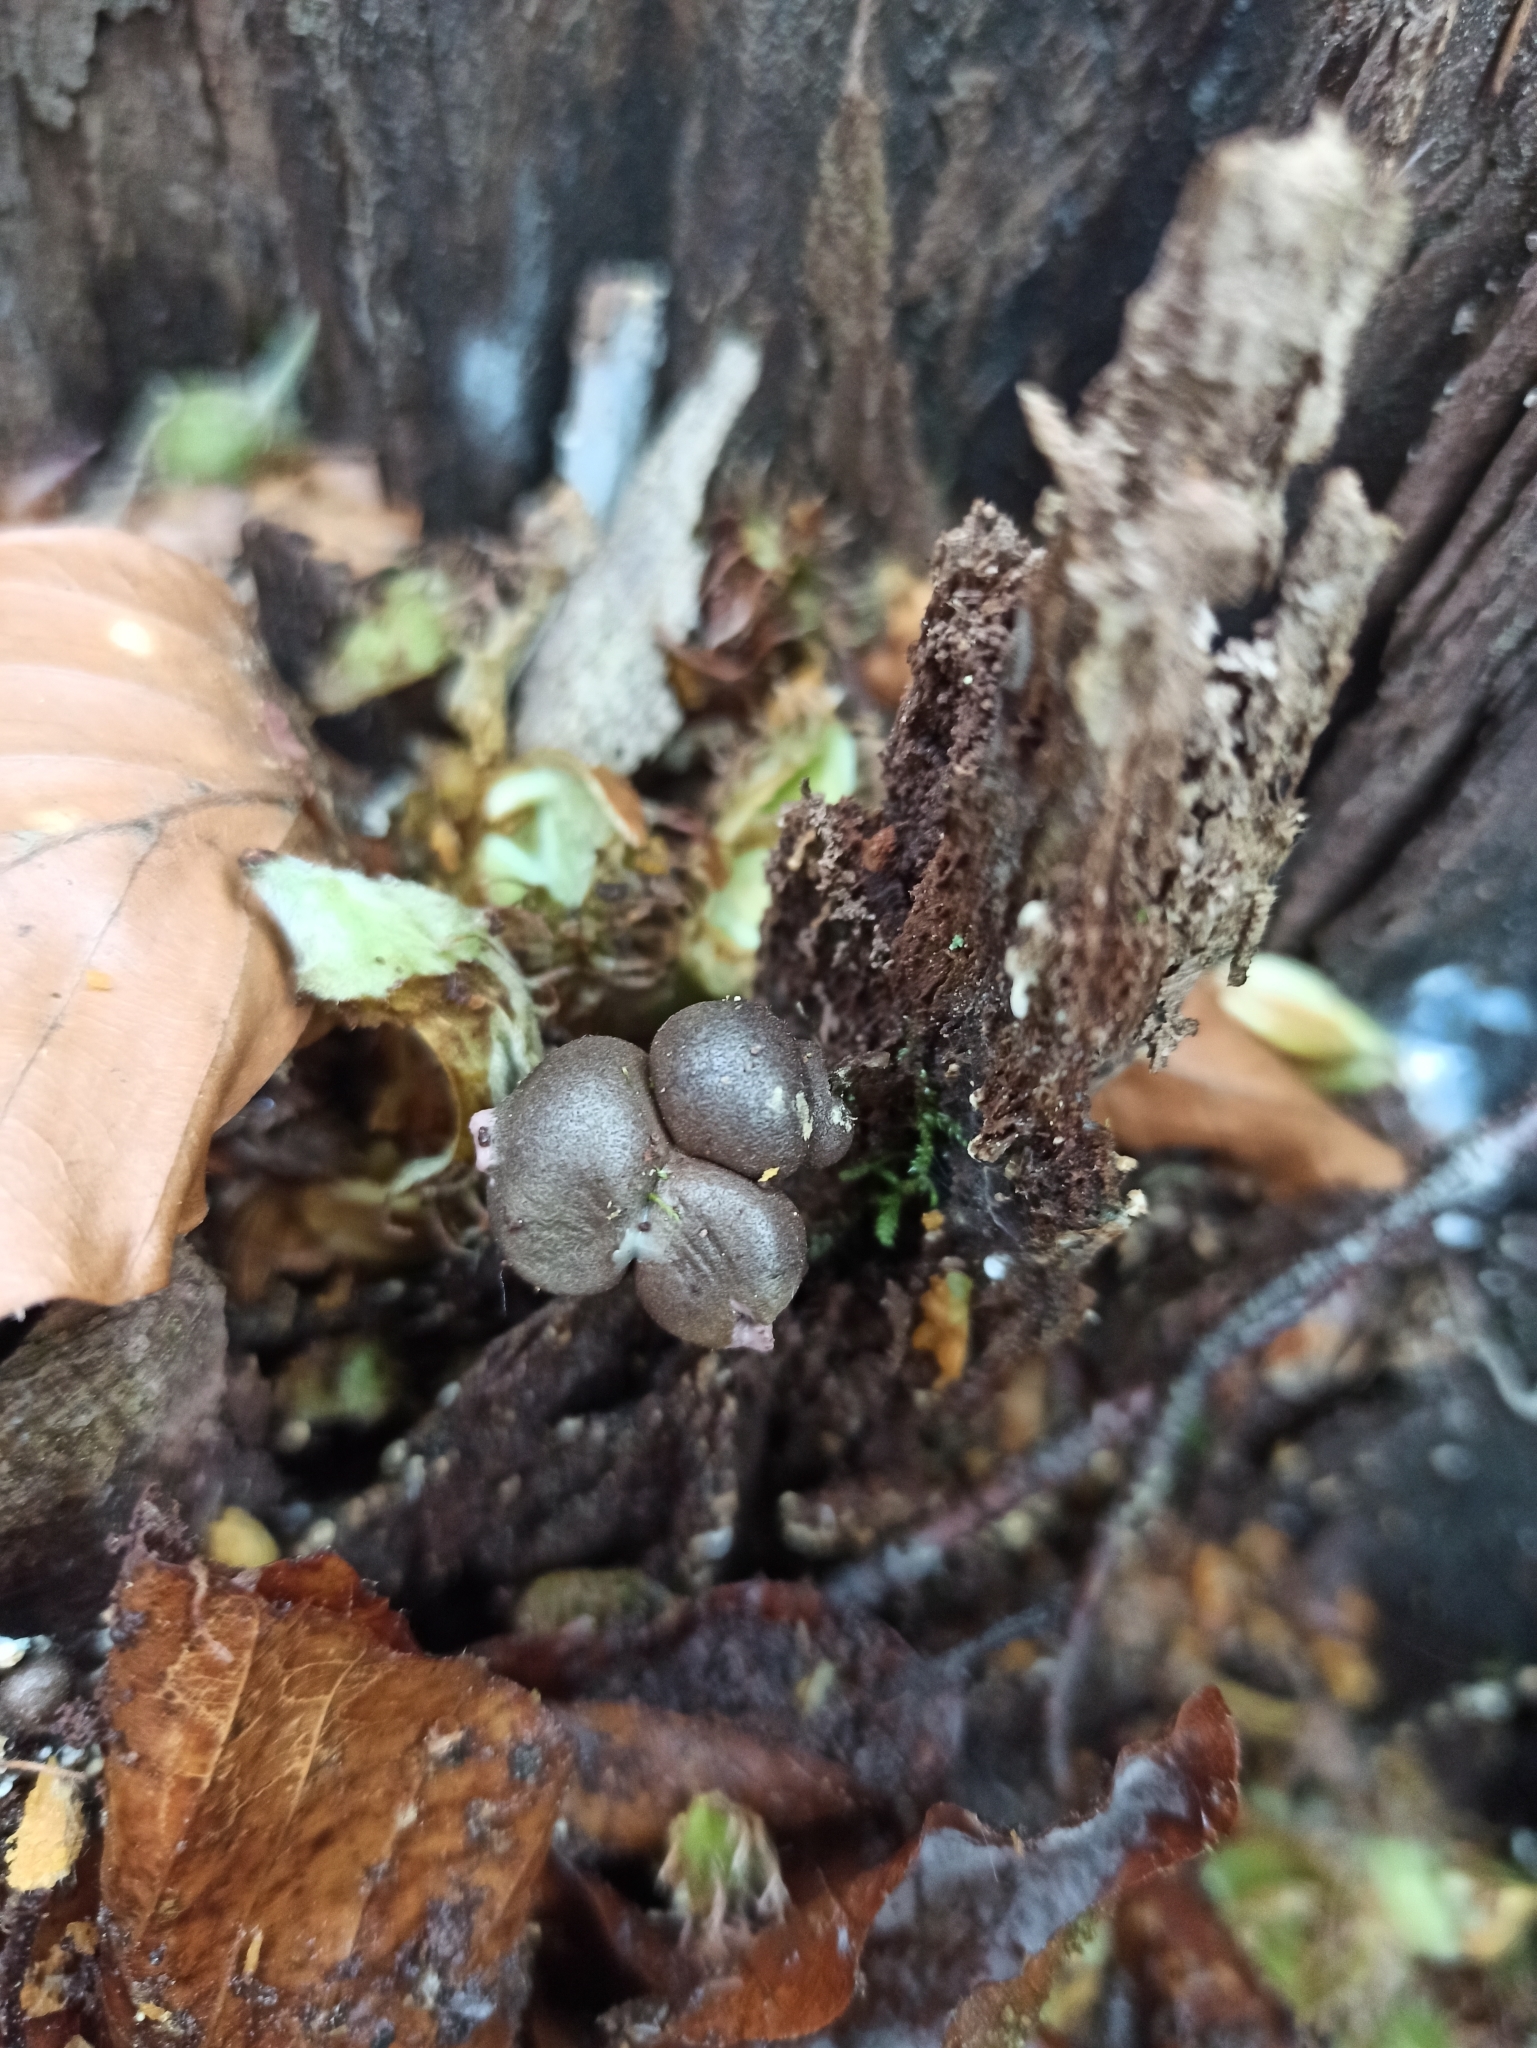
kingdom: Protozoa
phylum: Mycetozoa
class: Myxomycetes
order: Cribrariales
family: Tubiferaceae
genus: Lycogala
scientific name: Lycogala epidendrum
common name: Wolf's milk
